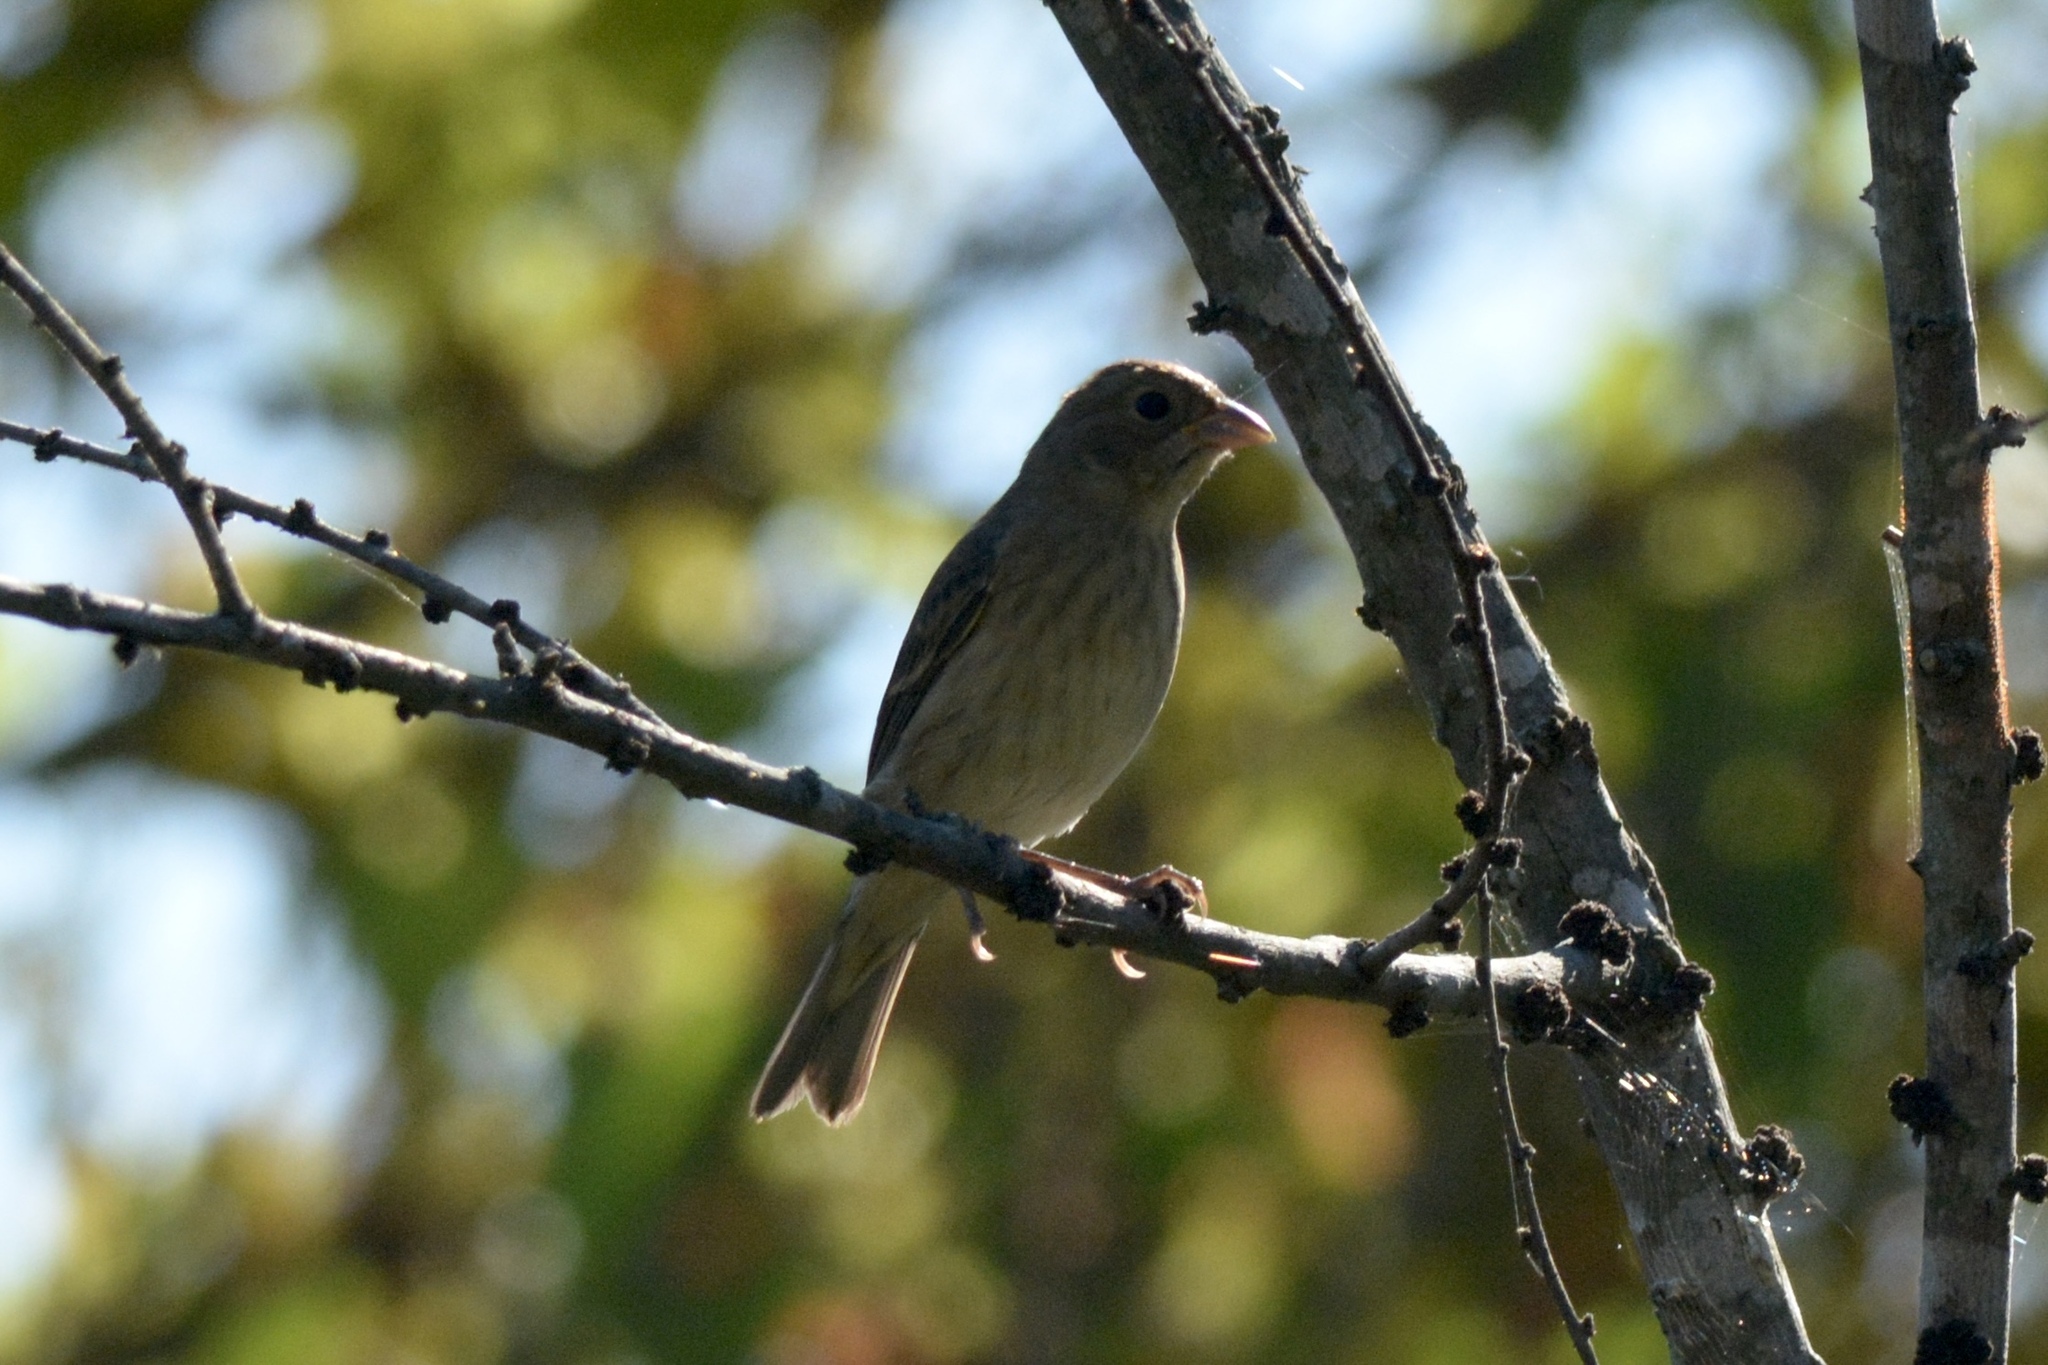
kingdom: Animalia
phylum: Chordata
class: Aves
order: Passeriformes
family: Cardinalidae
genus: Passerina
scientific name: Passerina cyanea
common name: Indigo bunting
